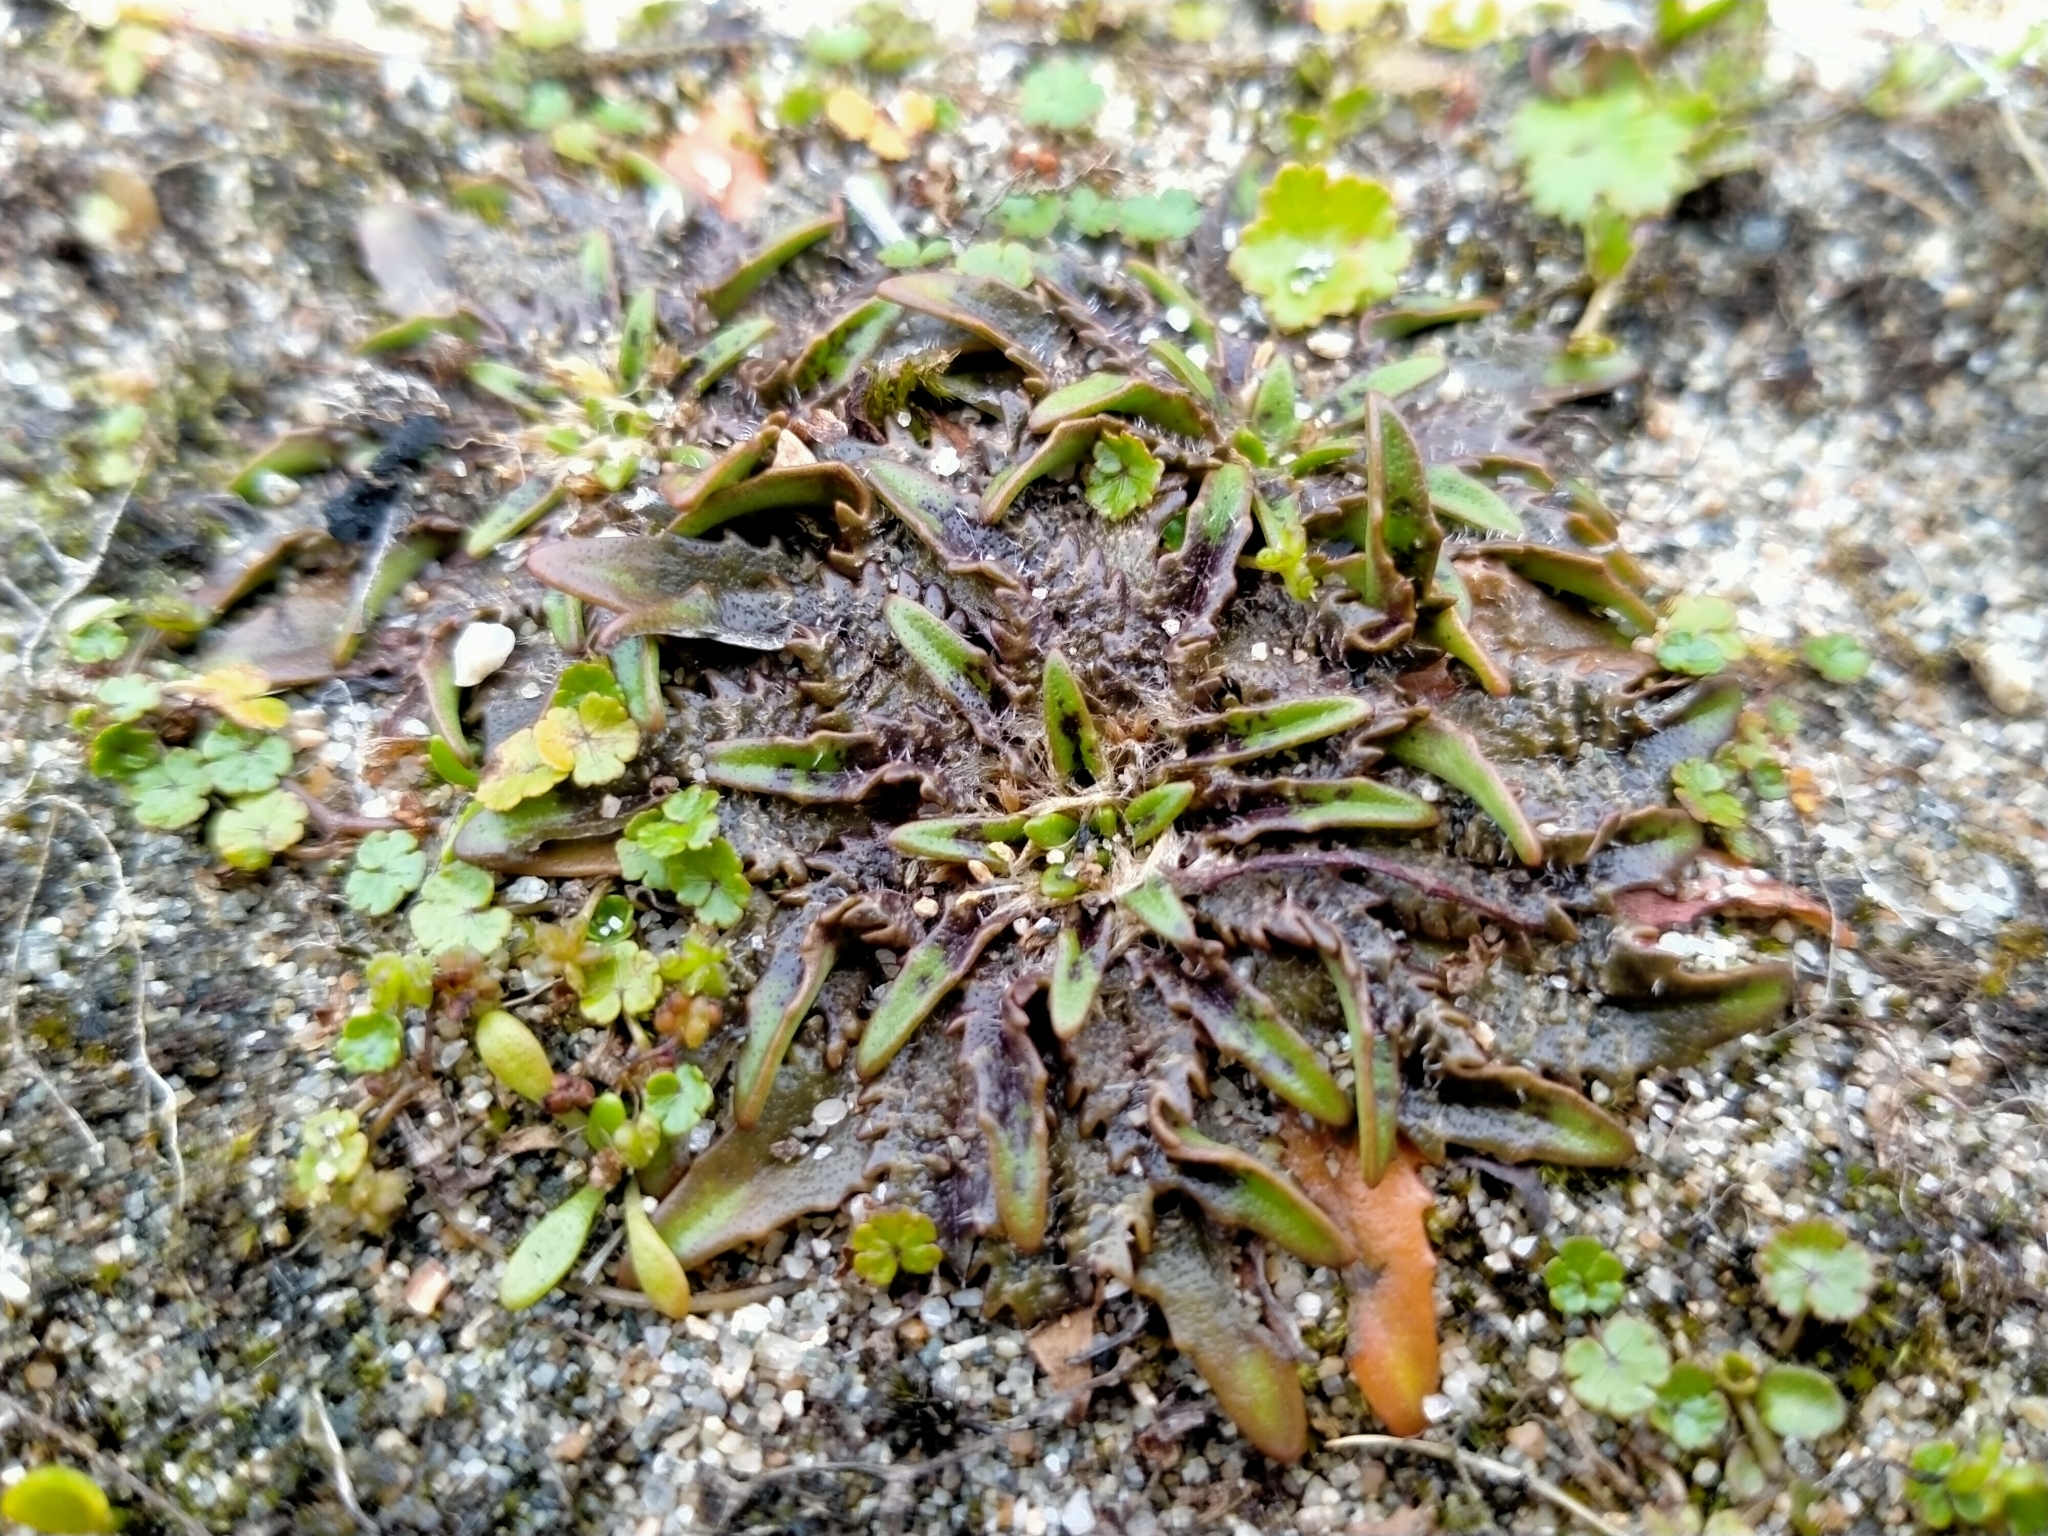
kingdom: Plantae
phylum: Tracheophyta
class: Magnoliopsida
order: Lamiales
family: Plantaginaceae
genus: Plantago
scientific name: Plantago triandra
